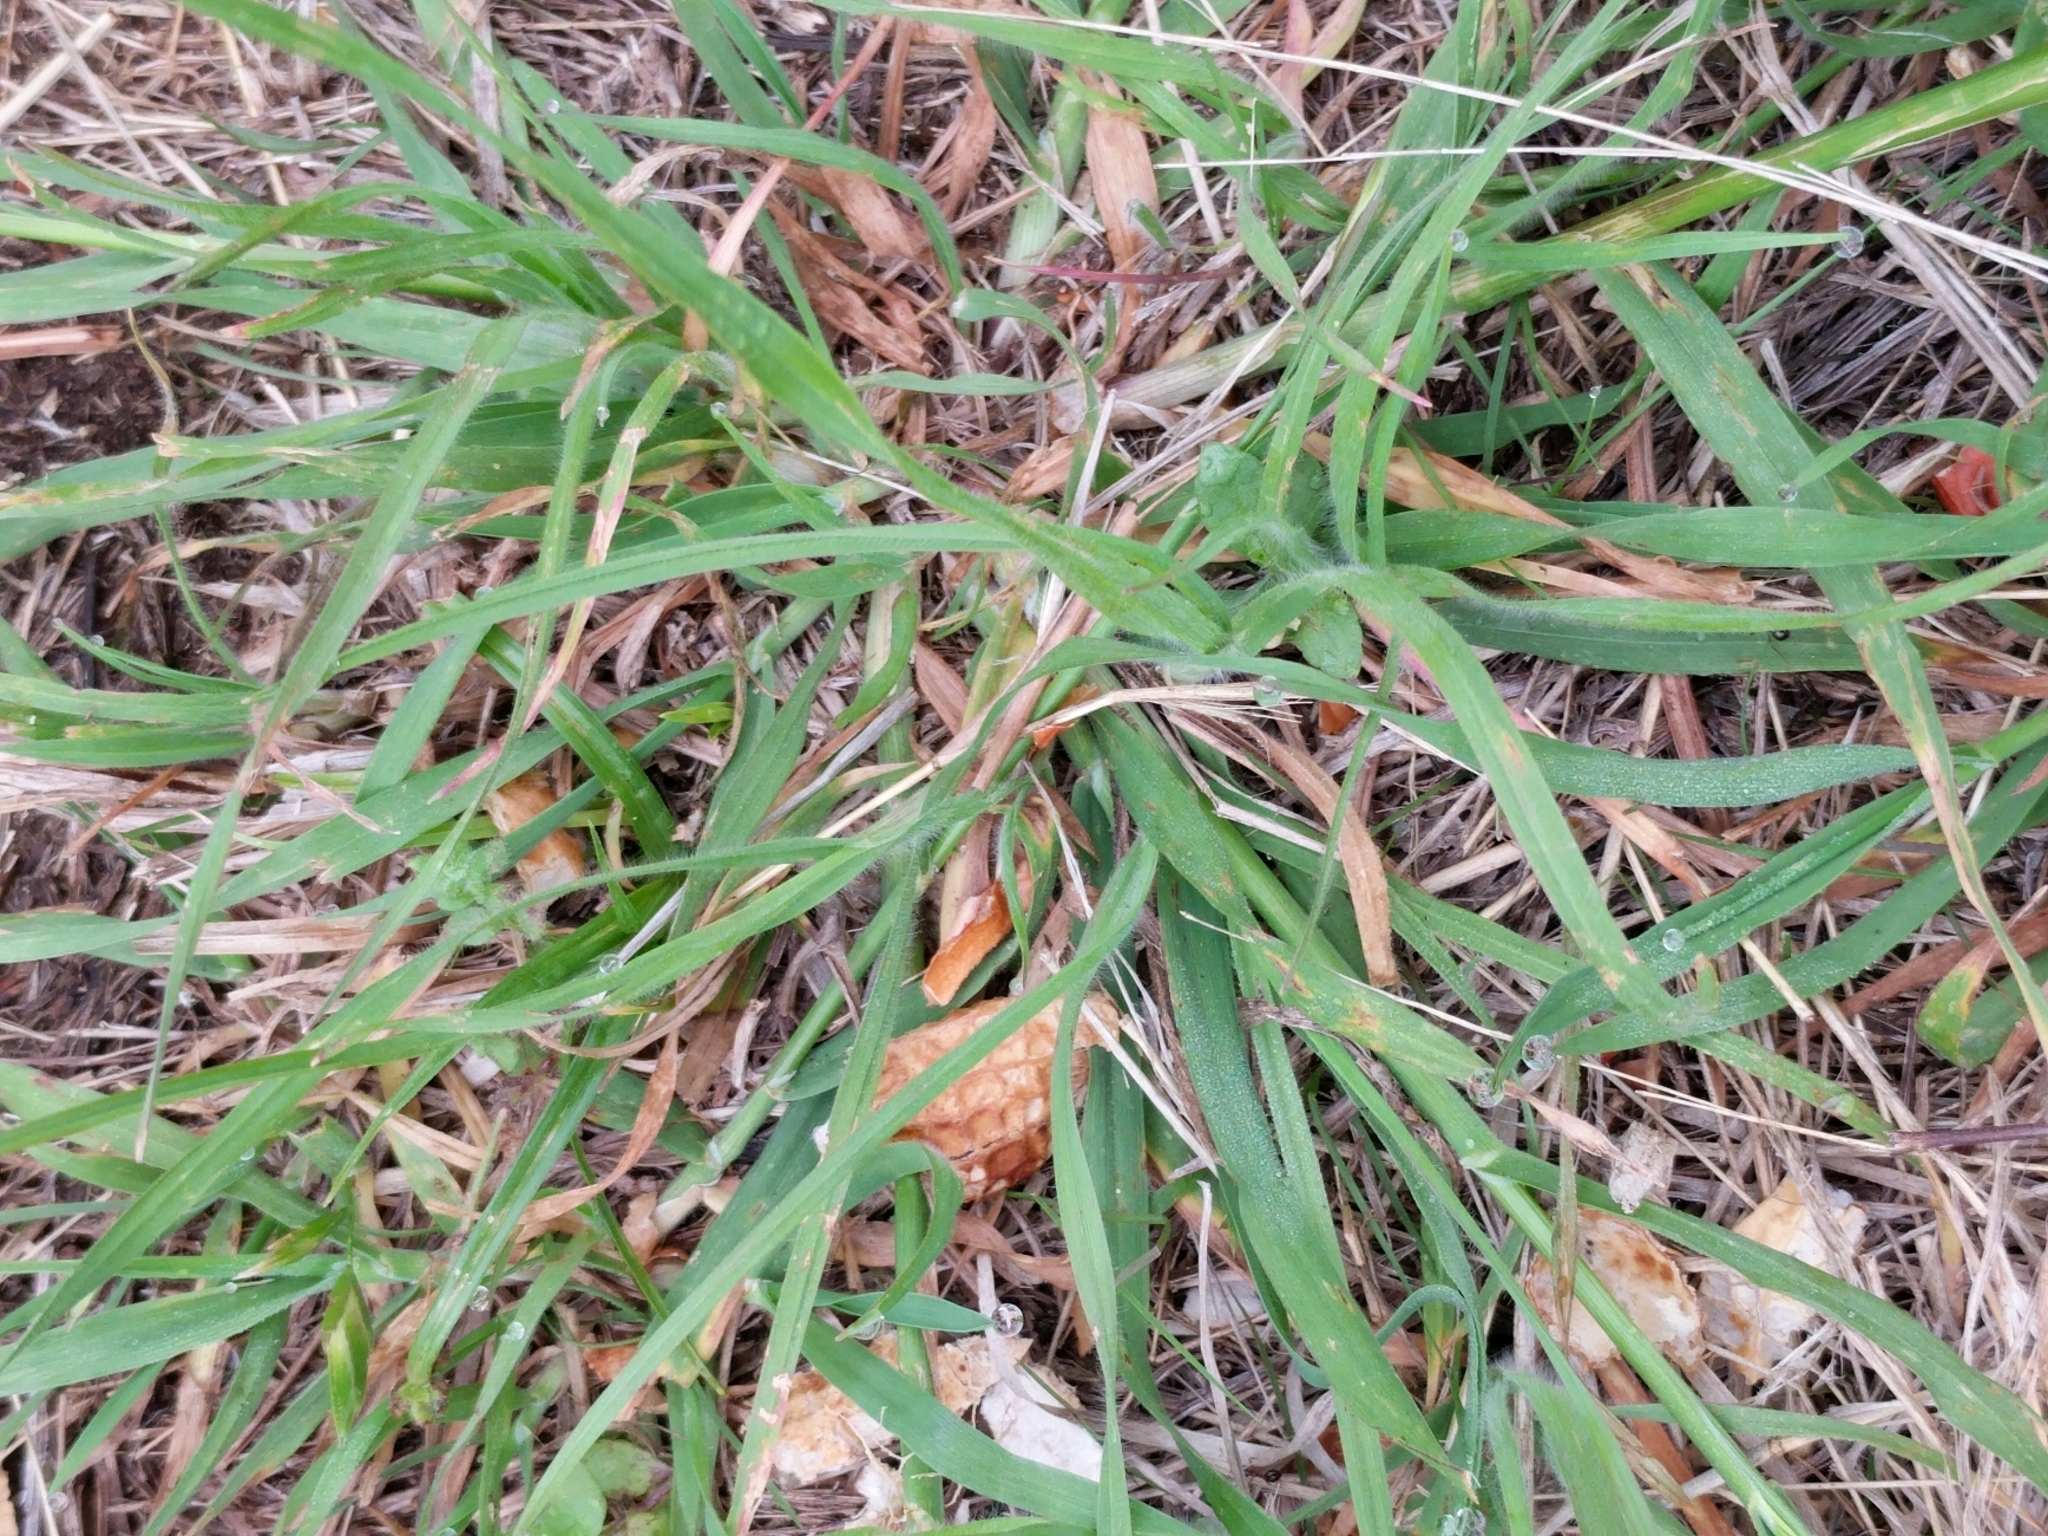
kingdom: Plantae
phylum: Tracheophyta
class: Liliopsida
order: Poales
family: Poaceae
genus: Bromus
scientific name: Bromus catharticus
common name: Rescuegrass
